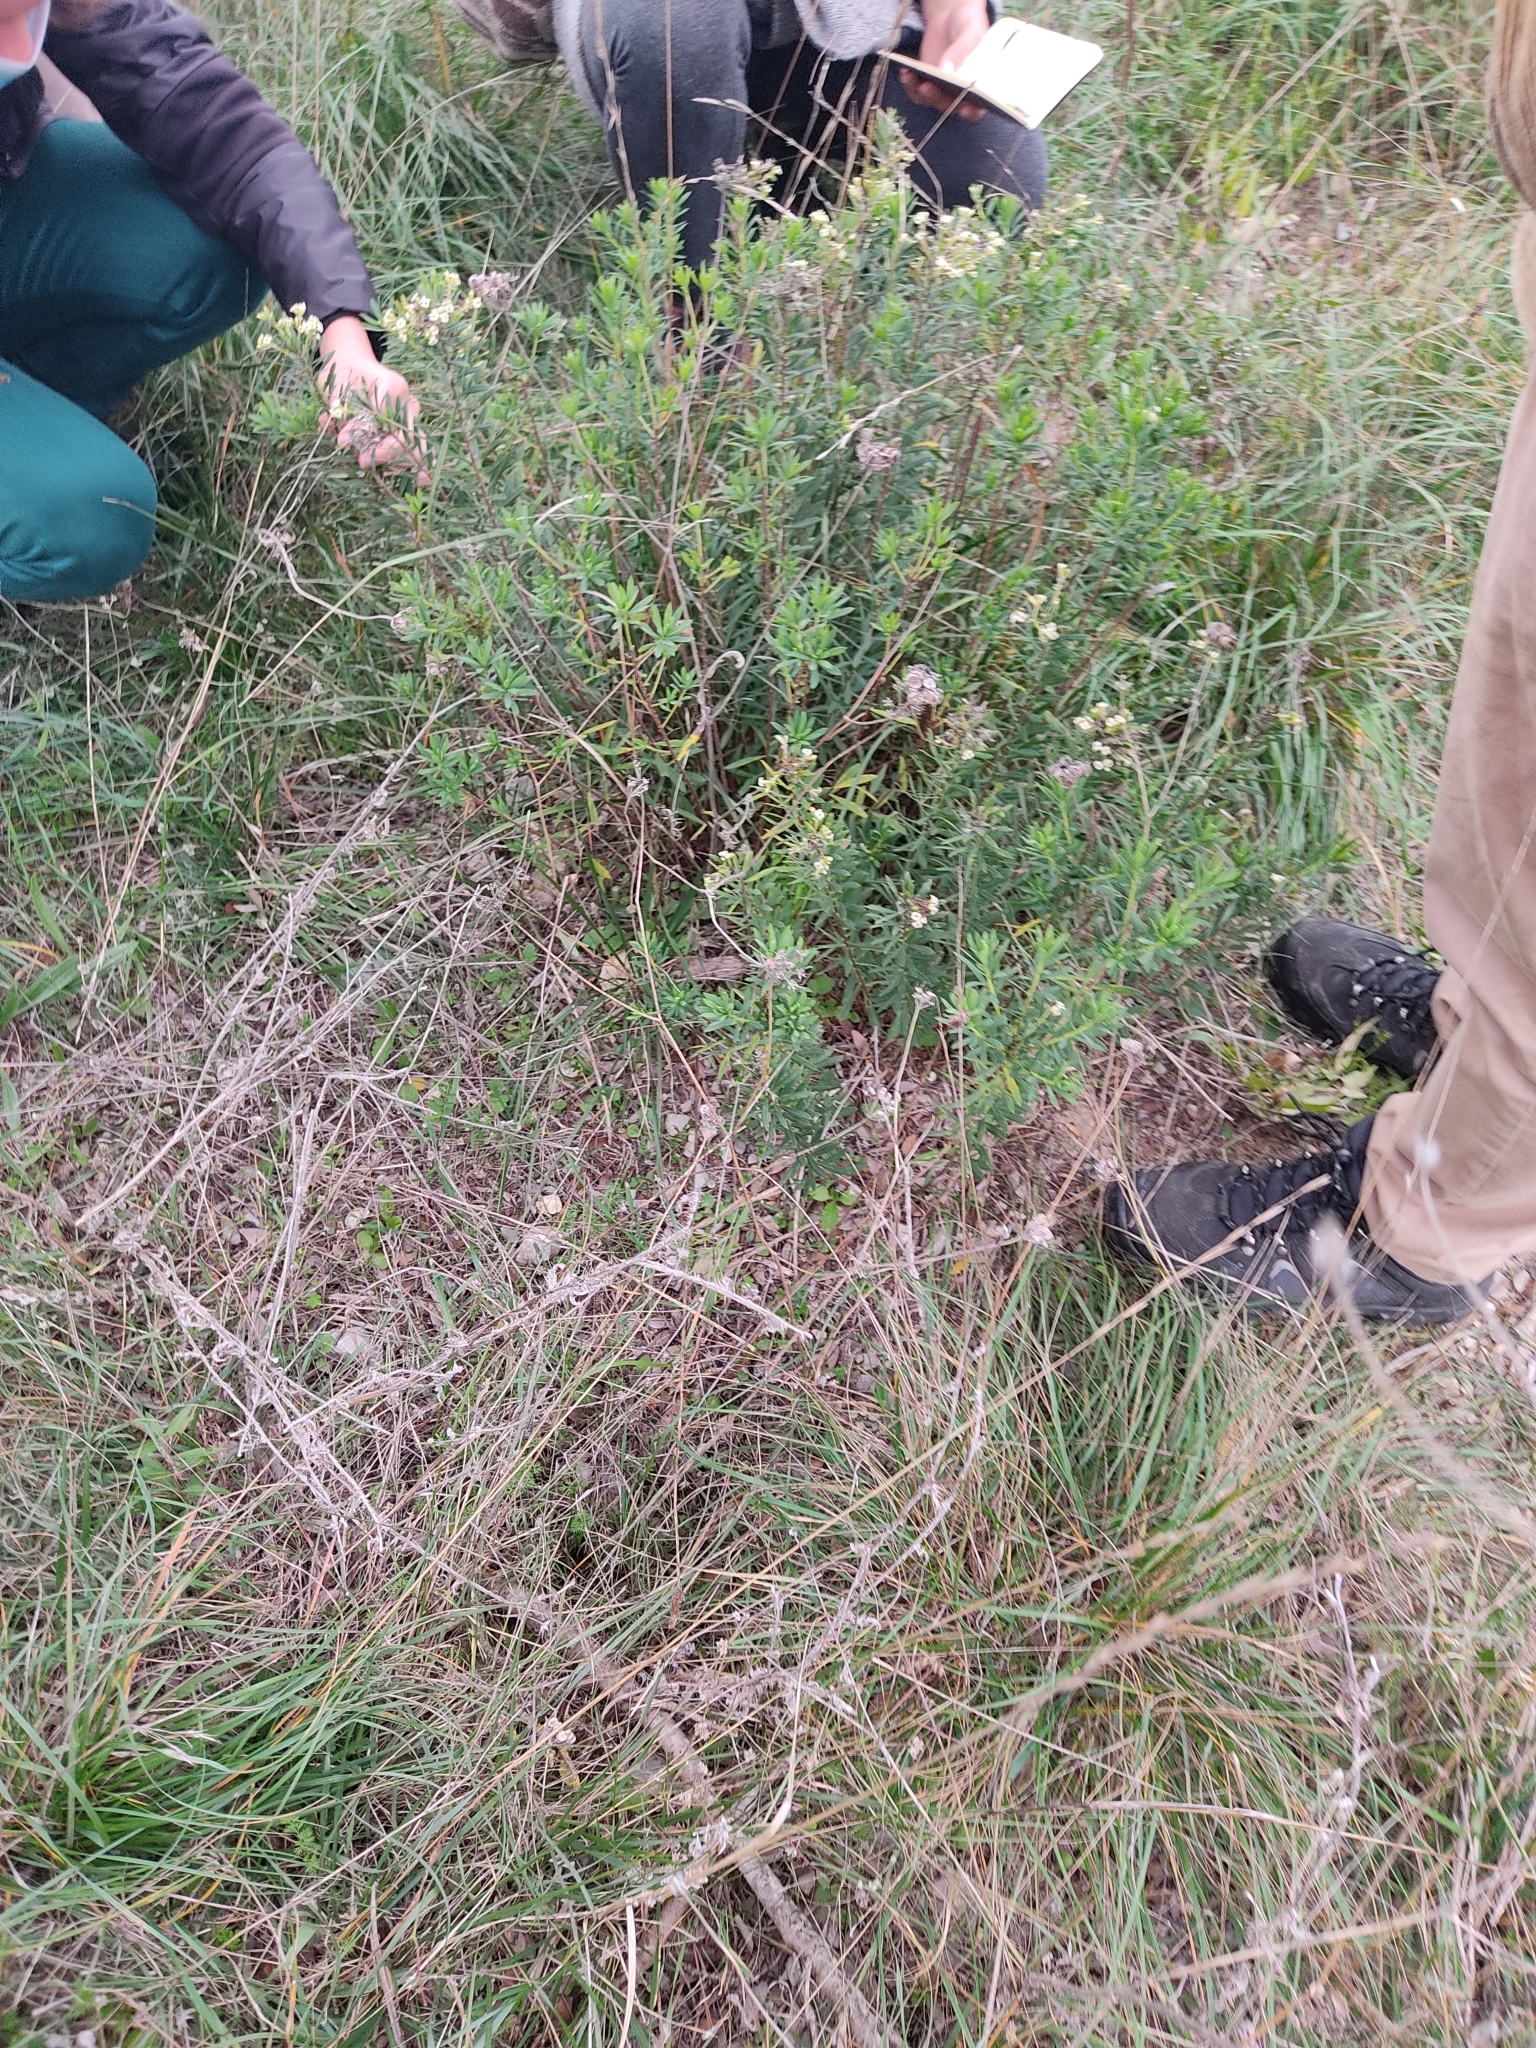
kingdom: Plantae
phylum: Tracheophyta
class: Magnoliopsida
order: Malvales
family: Thymelaeaceae
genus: Daphne
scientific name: Daphne gnidium
